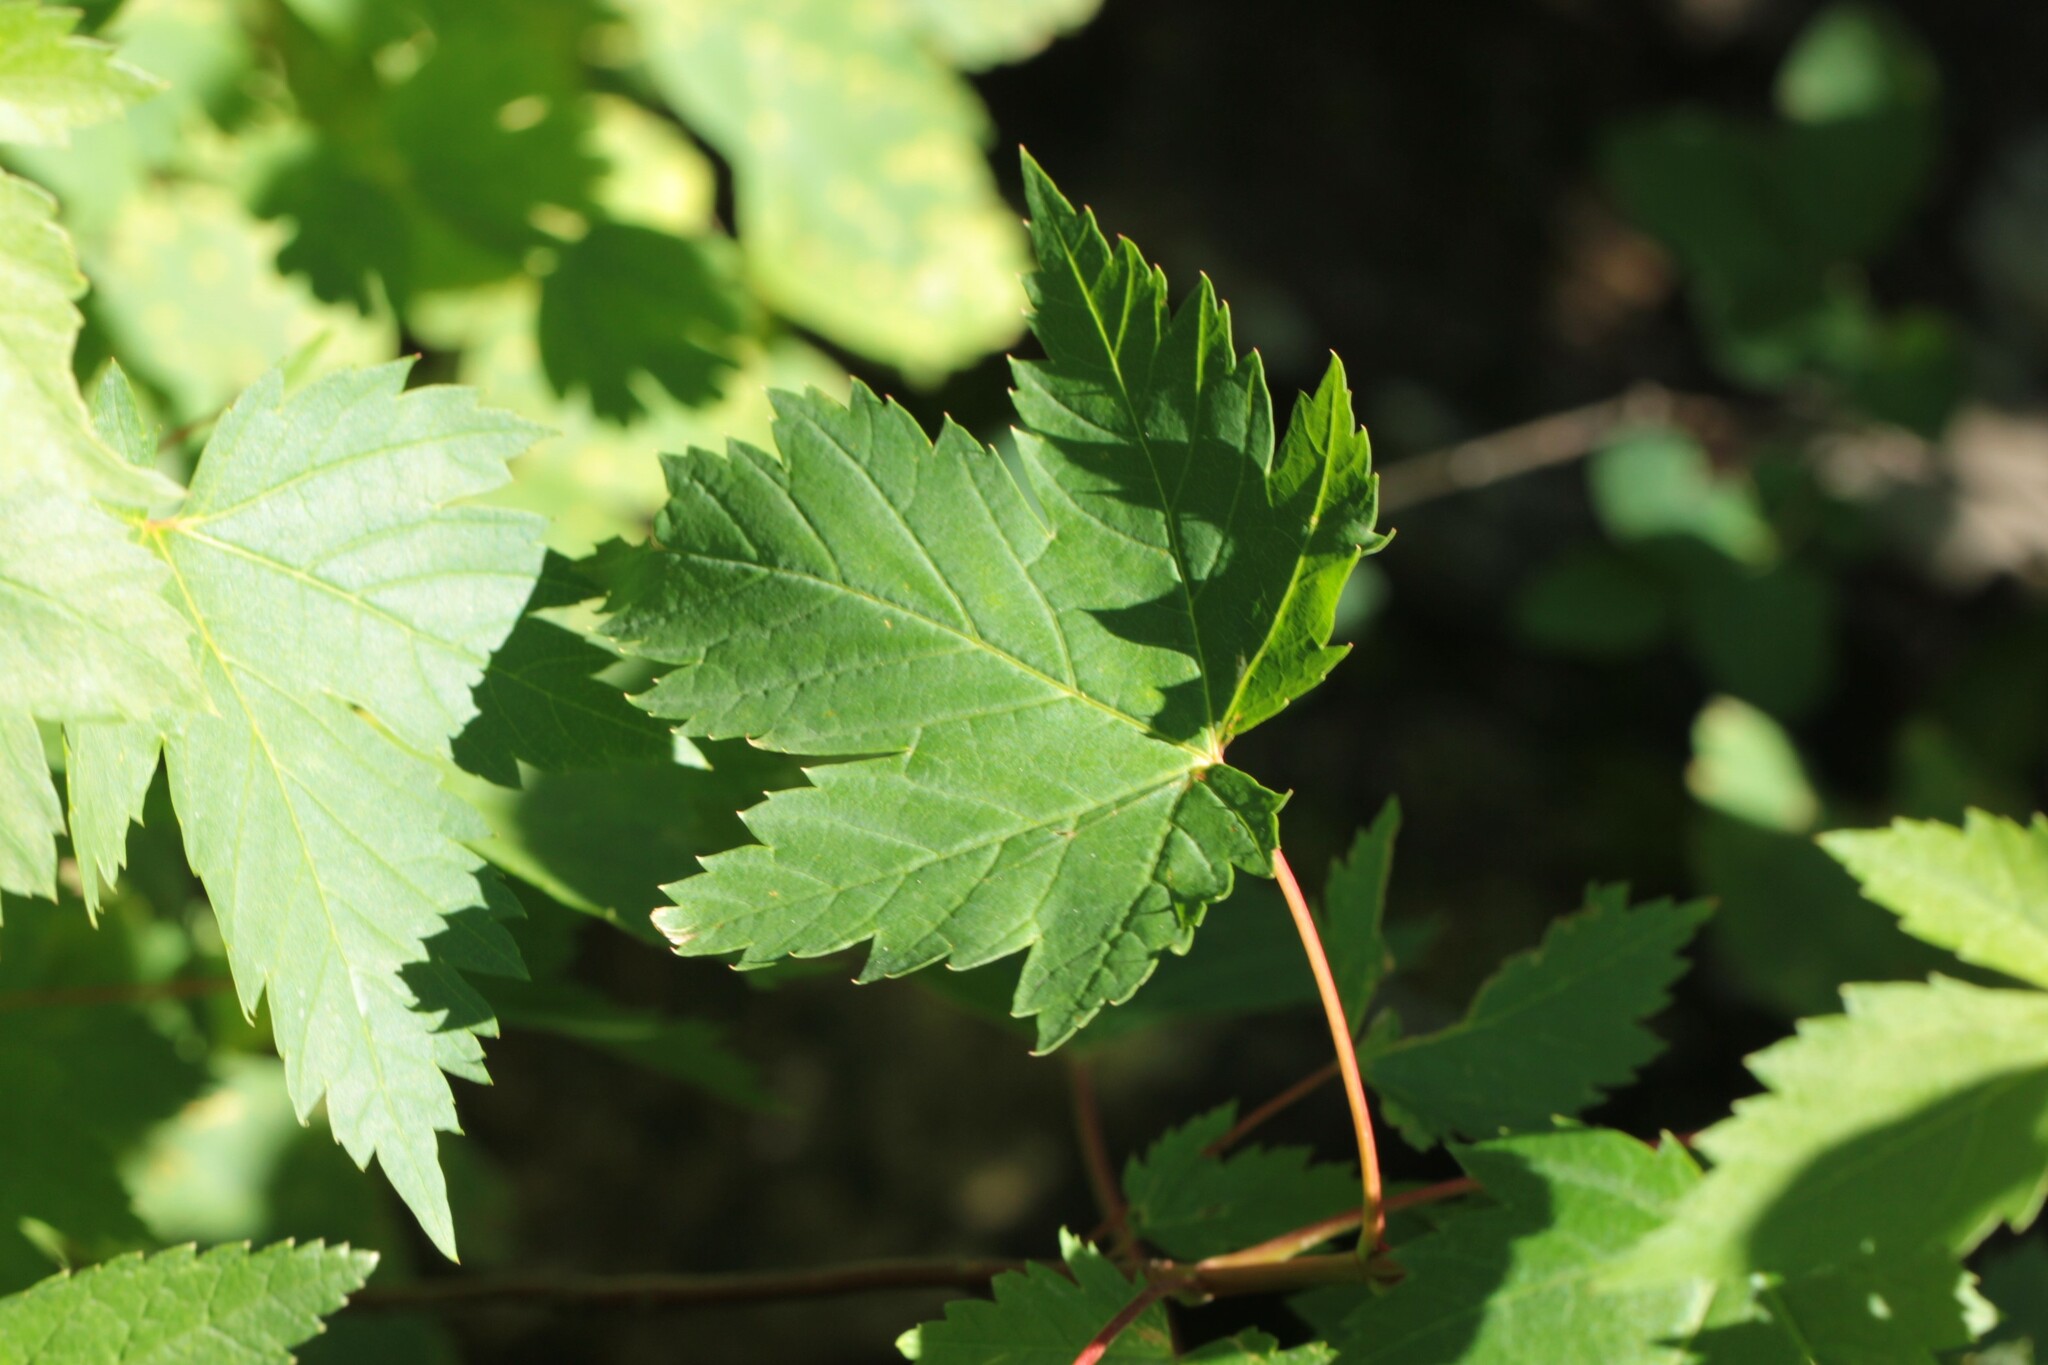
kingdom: Plantae
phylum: Tracheophyta
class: Magnoliopsida
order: Sapindales
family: Sapindaceae
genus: Acer
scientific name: Acer glabrum
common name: Rocky mountain maple
